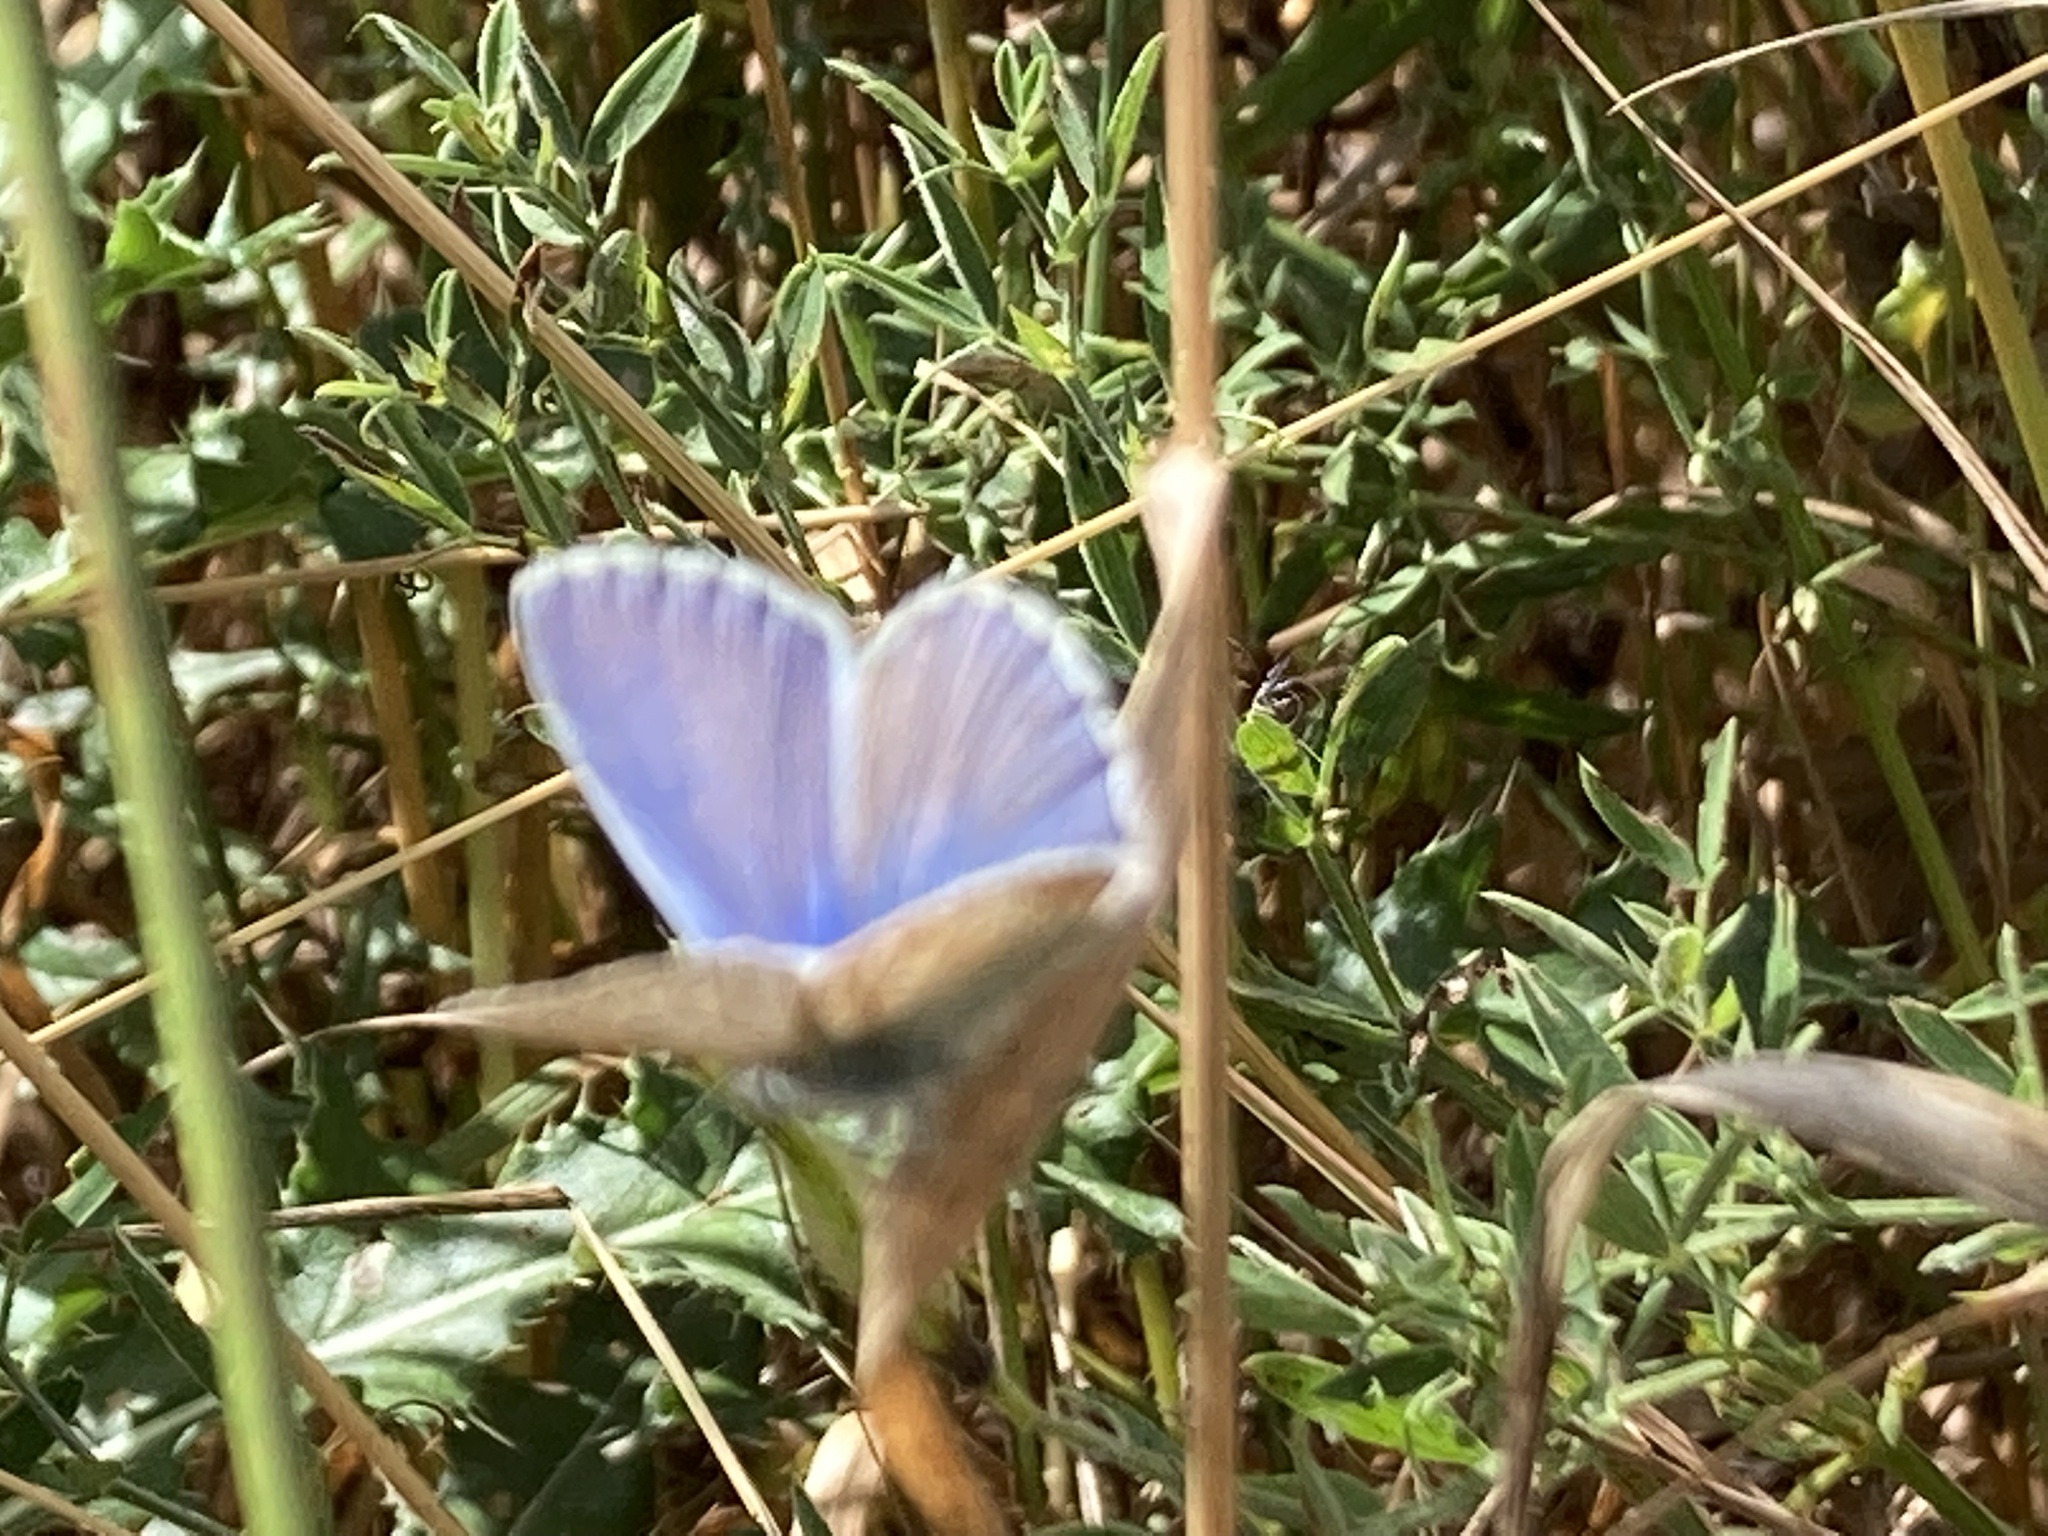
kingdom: Animalia
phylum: Arthropoda
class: Insecta
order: Lepidoptera
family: Lycaenidae
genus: Polyommatus
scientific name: Polyommatus icarus
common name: Common blue
